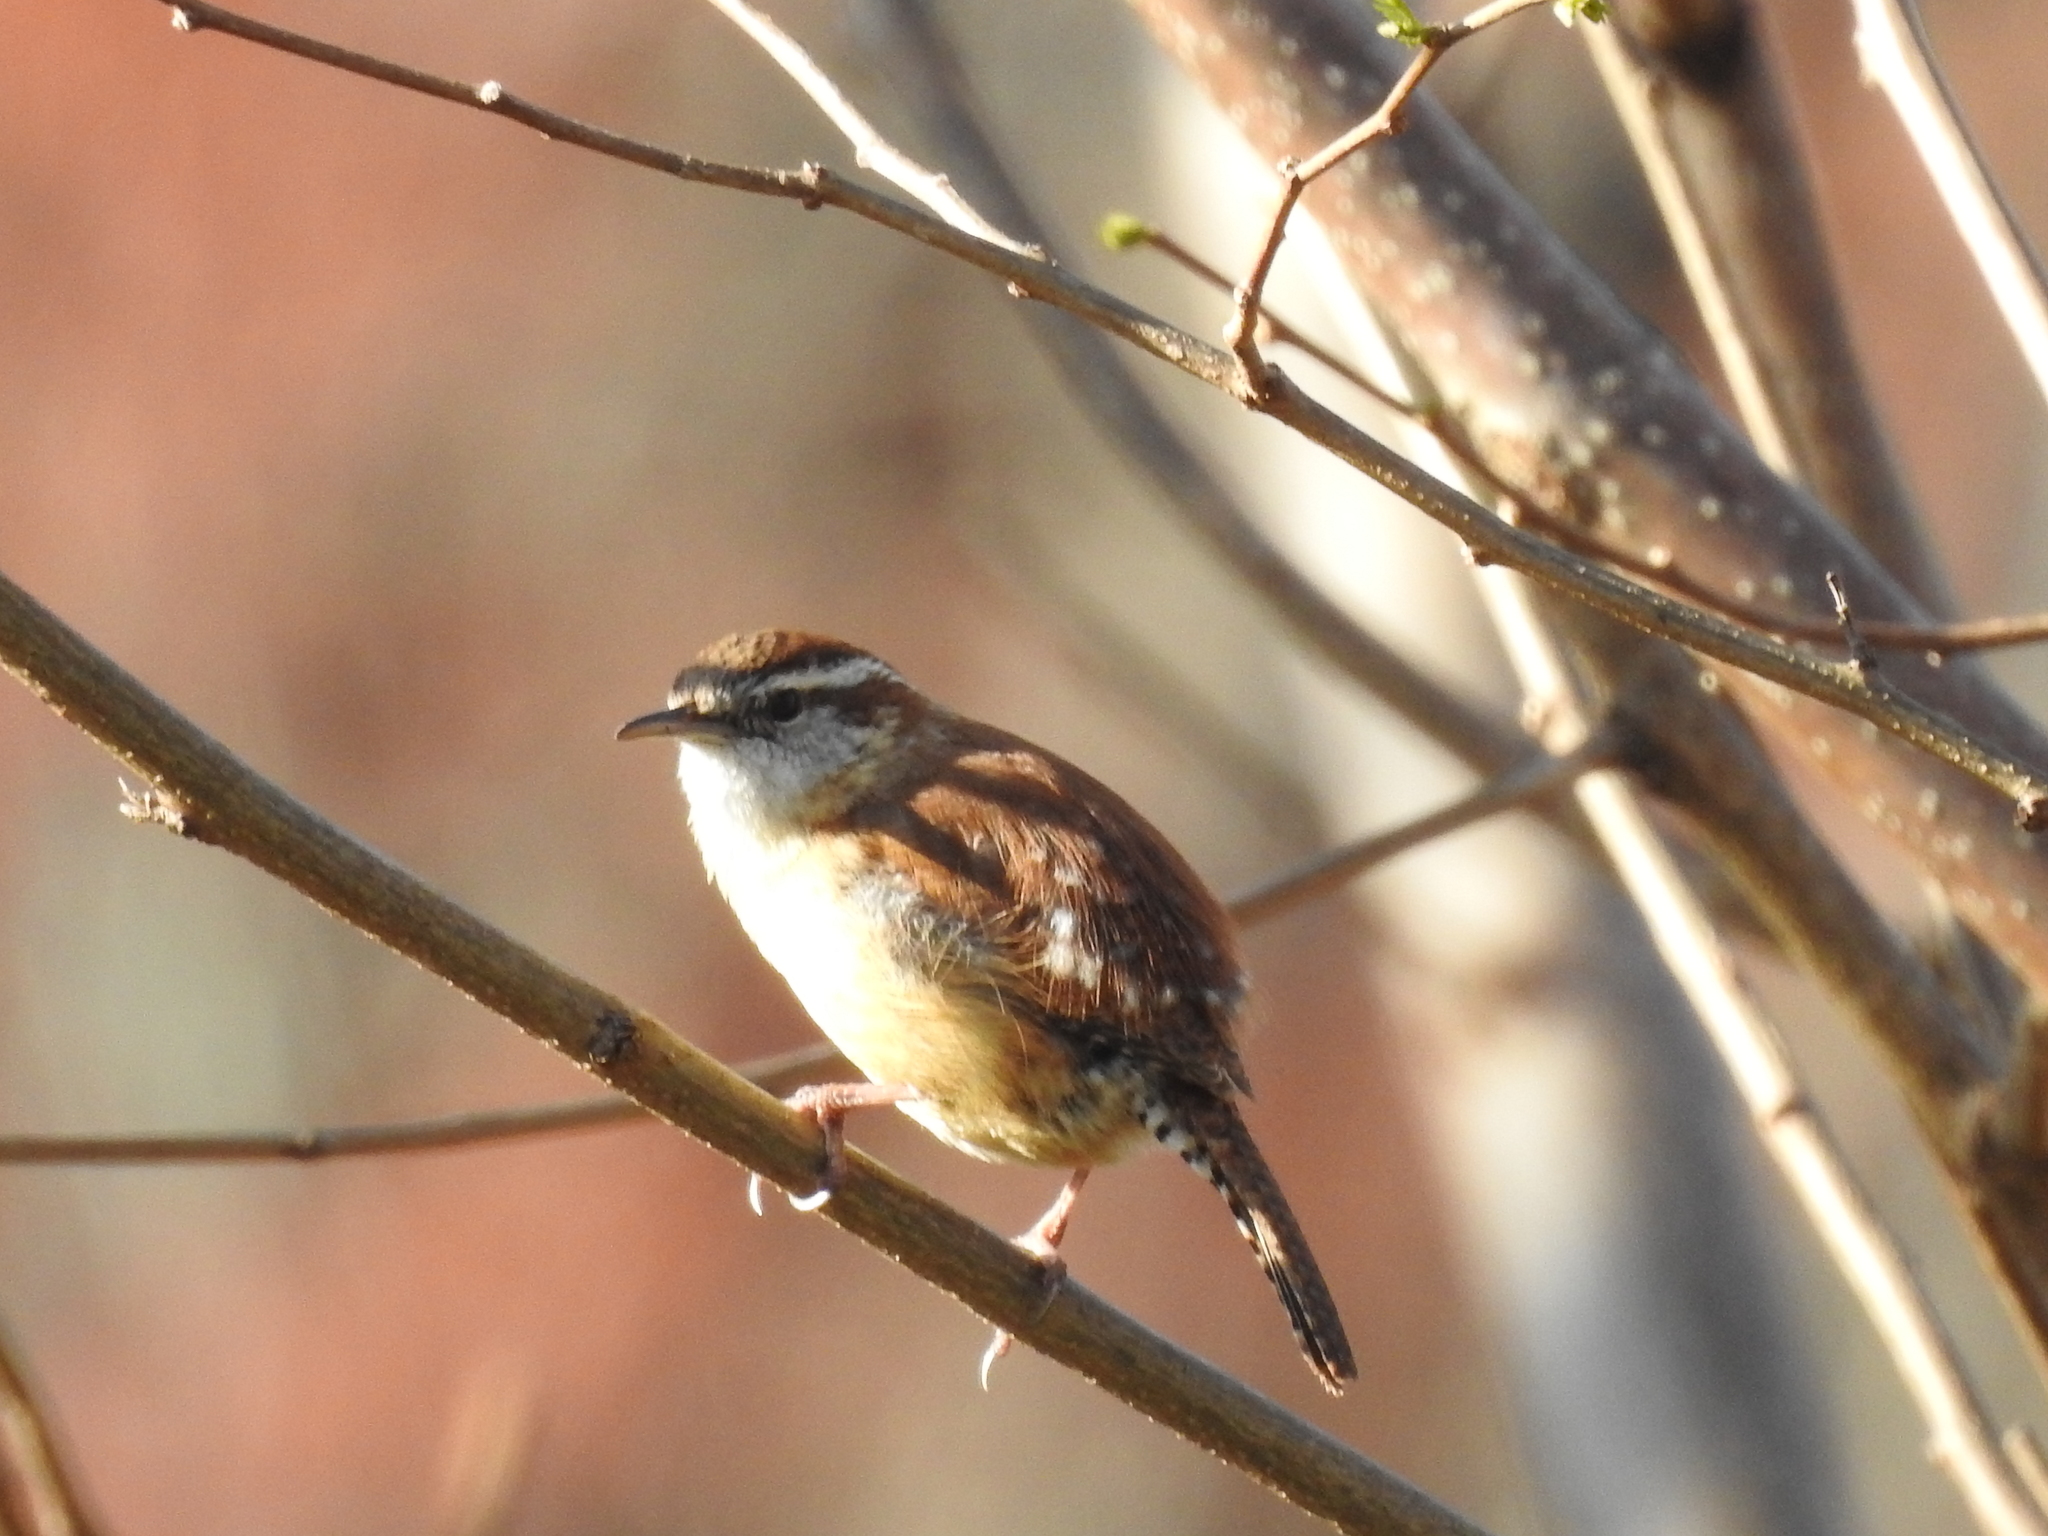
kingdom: Animalia
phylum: Chordata
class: Aves
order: Passeriformes
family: Troglodytidae
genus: Thryothorus
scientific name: Thryothorus ludovicianus
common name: Carolina wren
